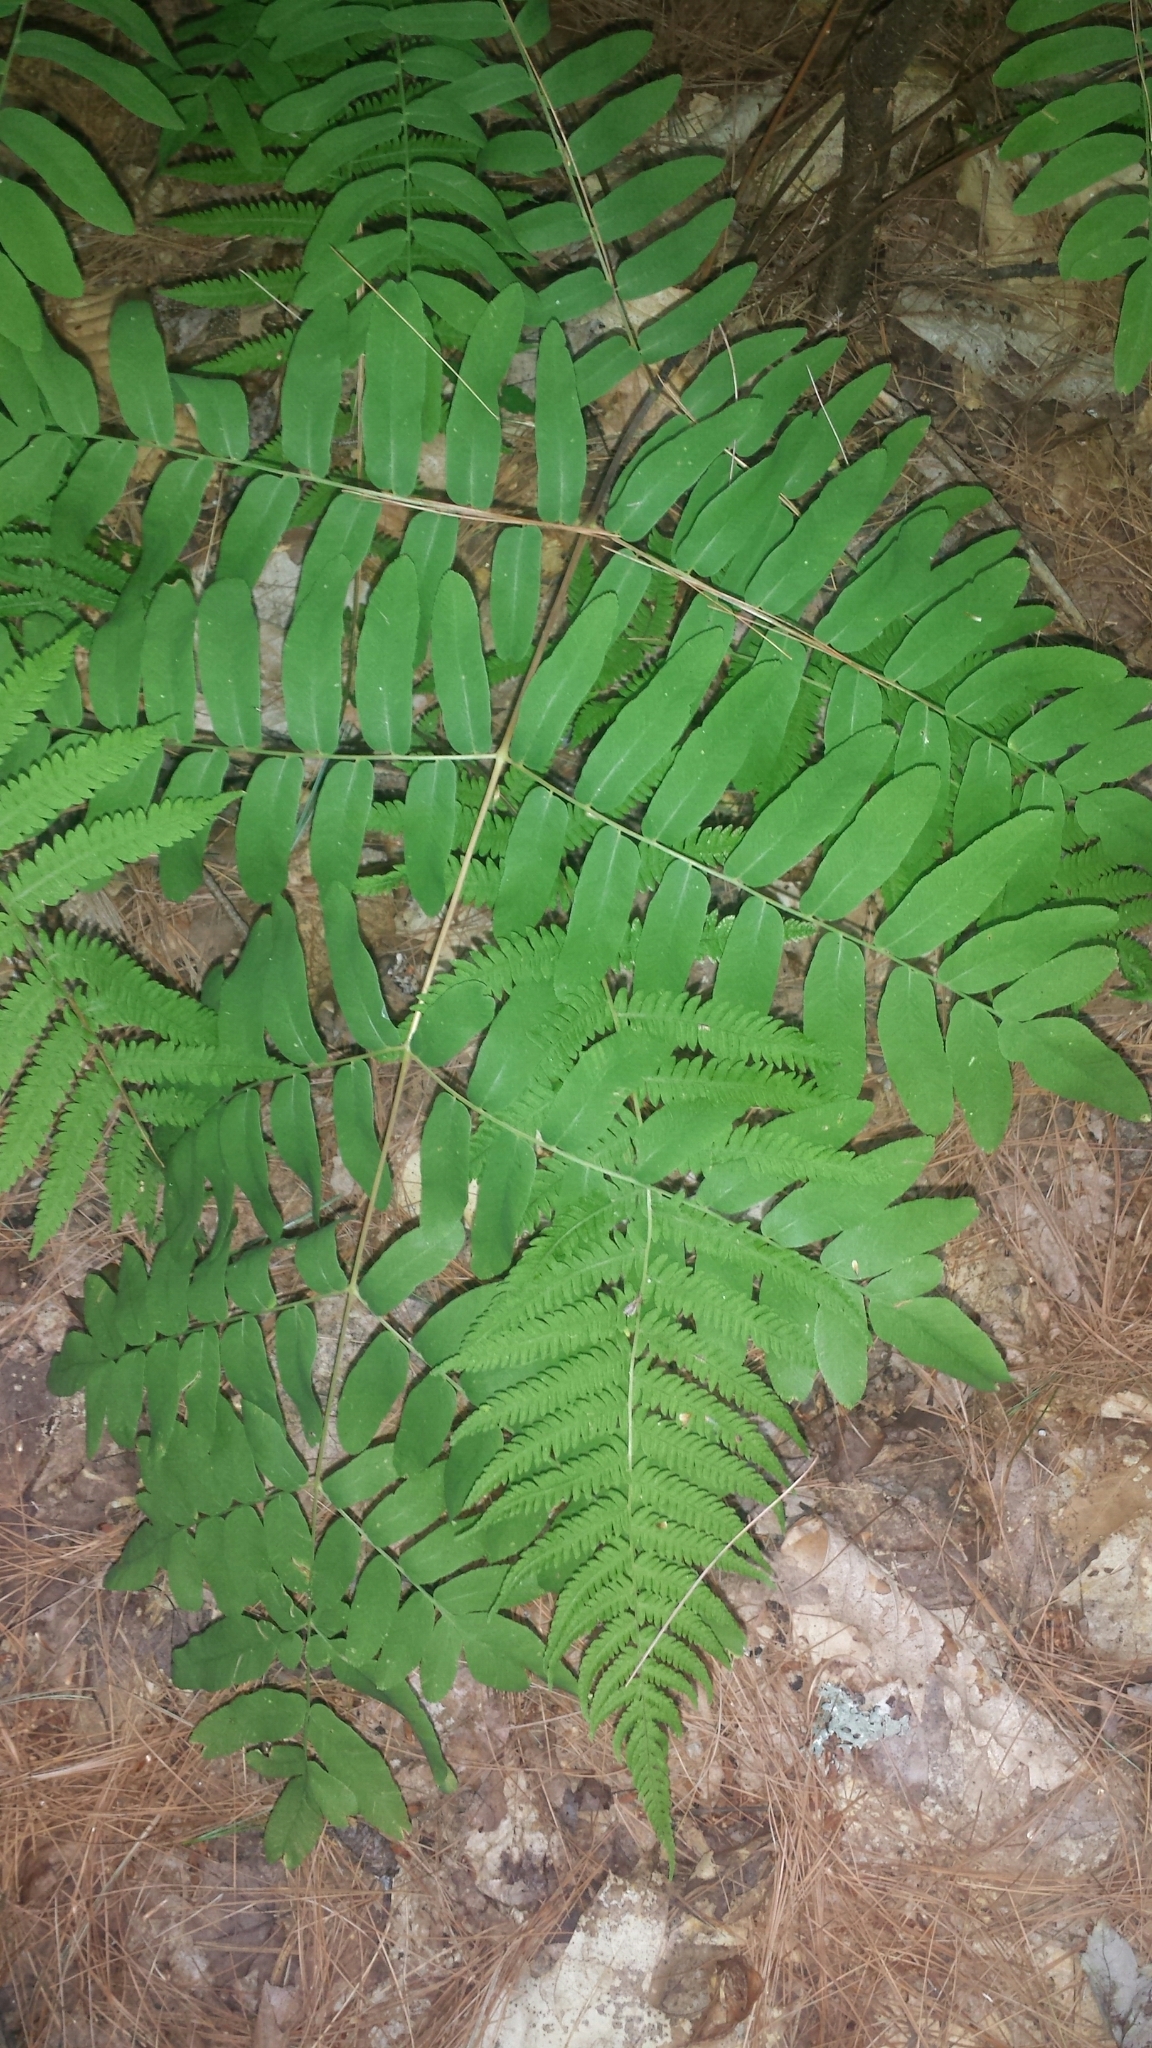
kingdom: Plantae
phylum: Tracheophyta
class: Polypodiopsida
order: Osmundales
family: Osmundaceae
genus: Osmunda
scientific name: Osmunda spectabilis
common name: American royal fern
